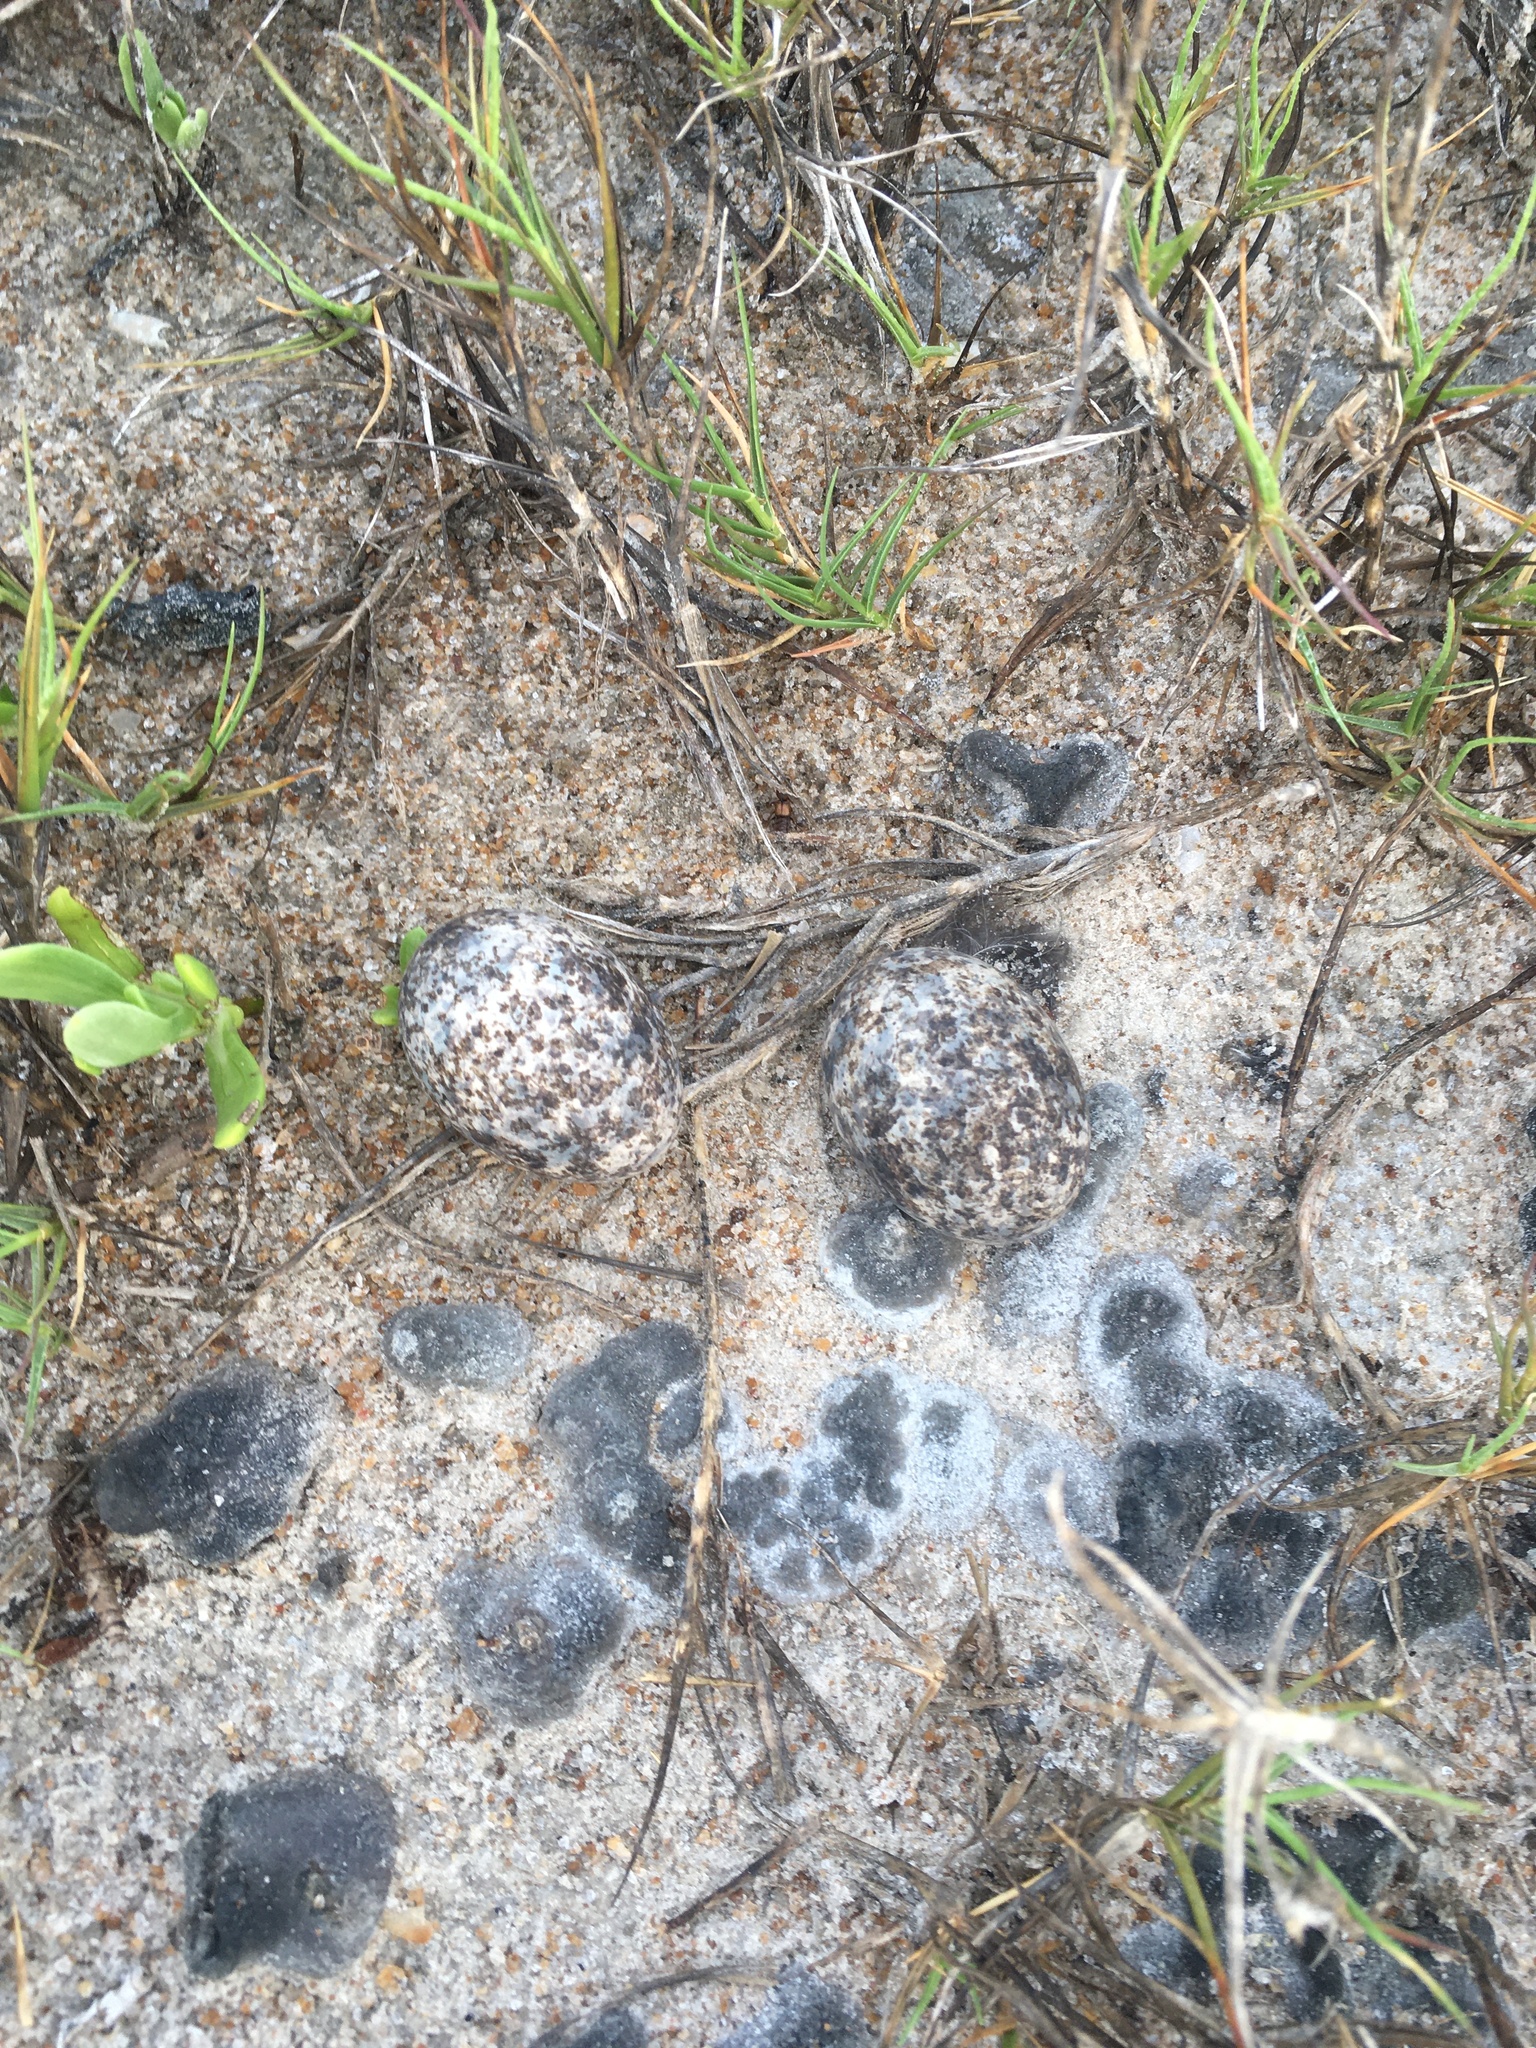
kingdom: Animalia
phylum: Chordata
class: Aves
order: Caprimulgiformes
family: Caprimulgidae
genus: Chordeiles
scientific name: Chordeiles minor
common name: Common nighthawk
